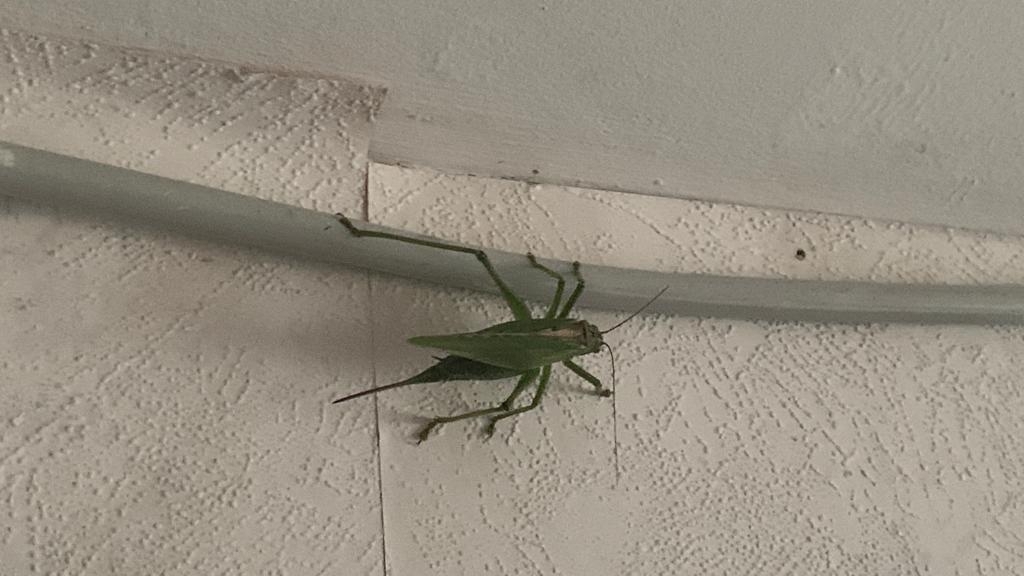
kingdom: Animalia
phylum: Arthropoda
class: Insecta
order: Orthoptera
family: Tettigoniidae
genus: Tettigonia
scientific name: Tettigonia viridissima
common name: Great green bush-cricket
